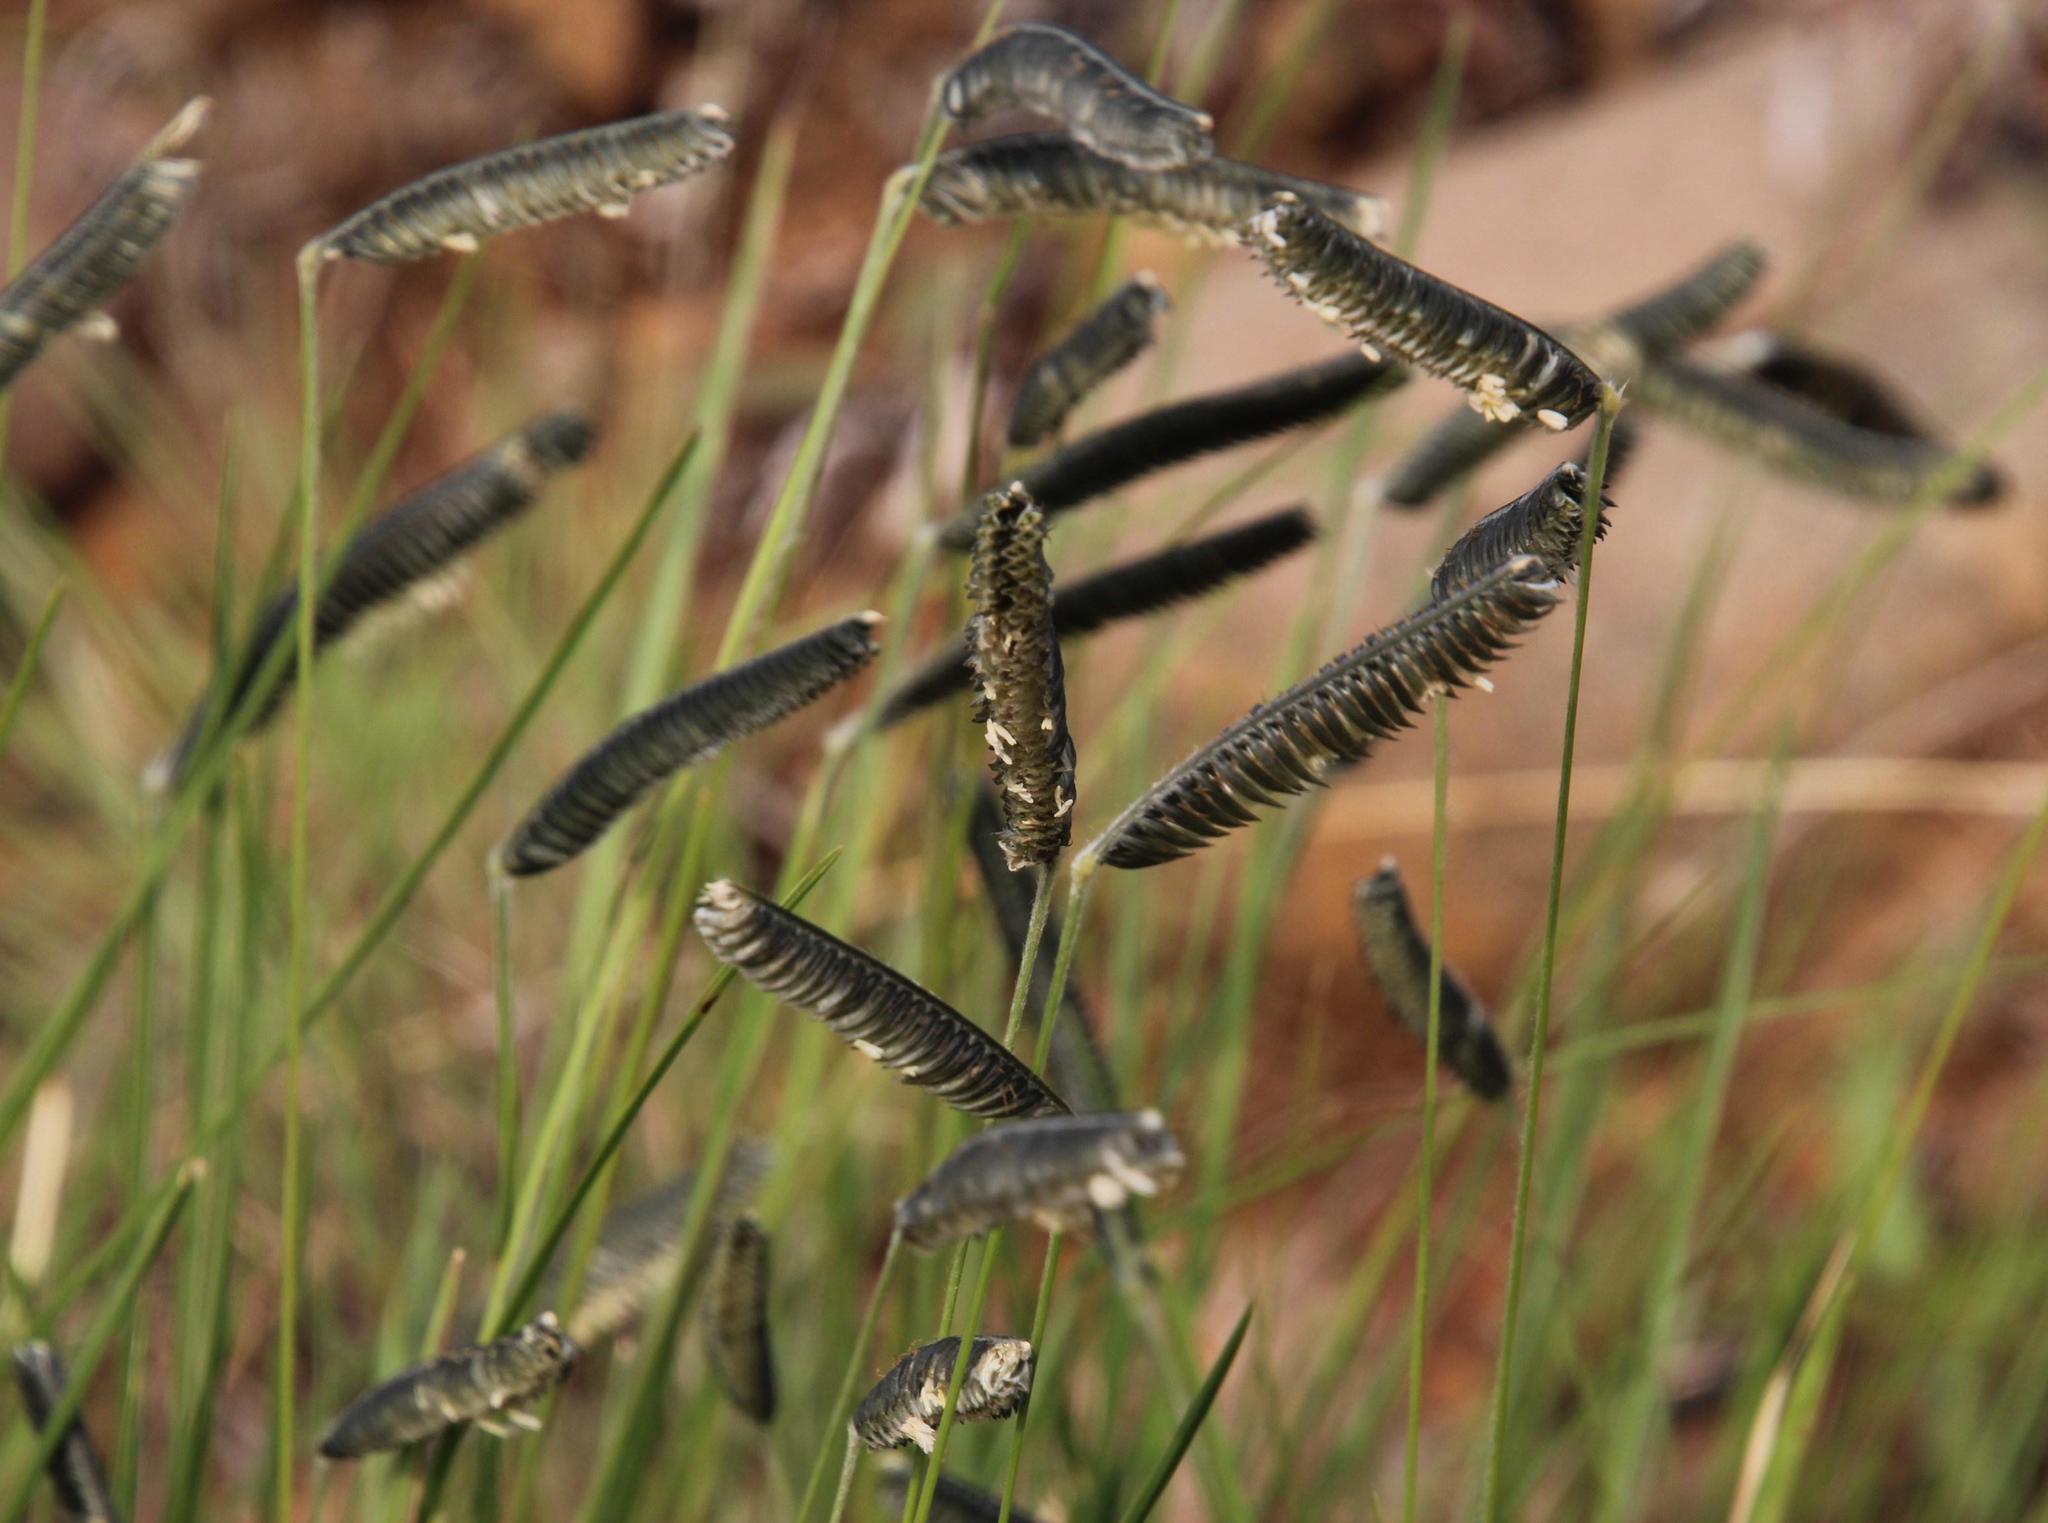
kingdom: Plantae
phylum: Tracheophyta
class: Liliopsida
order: Poales
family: Poaceae
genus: Harpochloa
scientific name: Harpochloa falx
